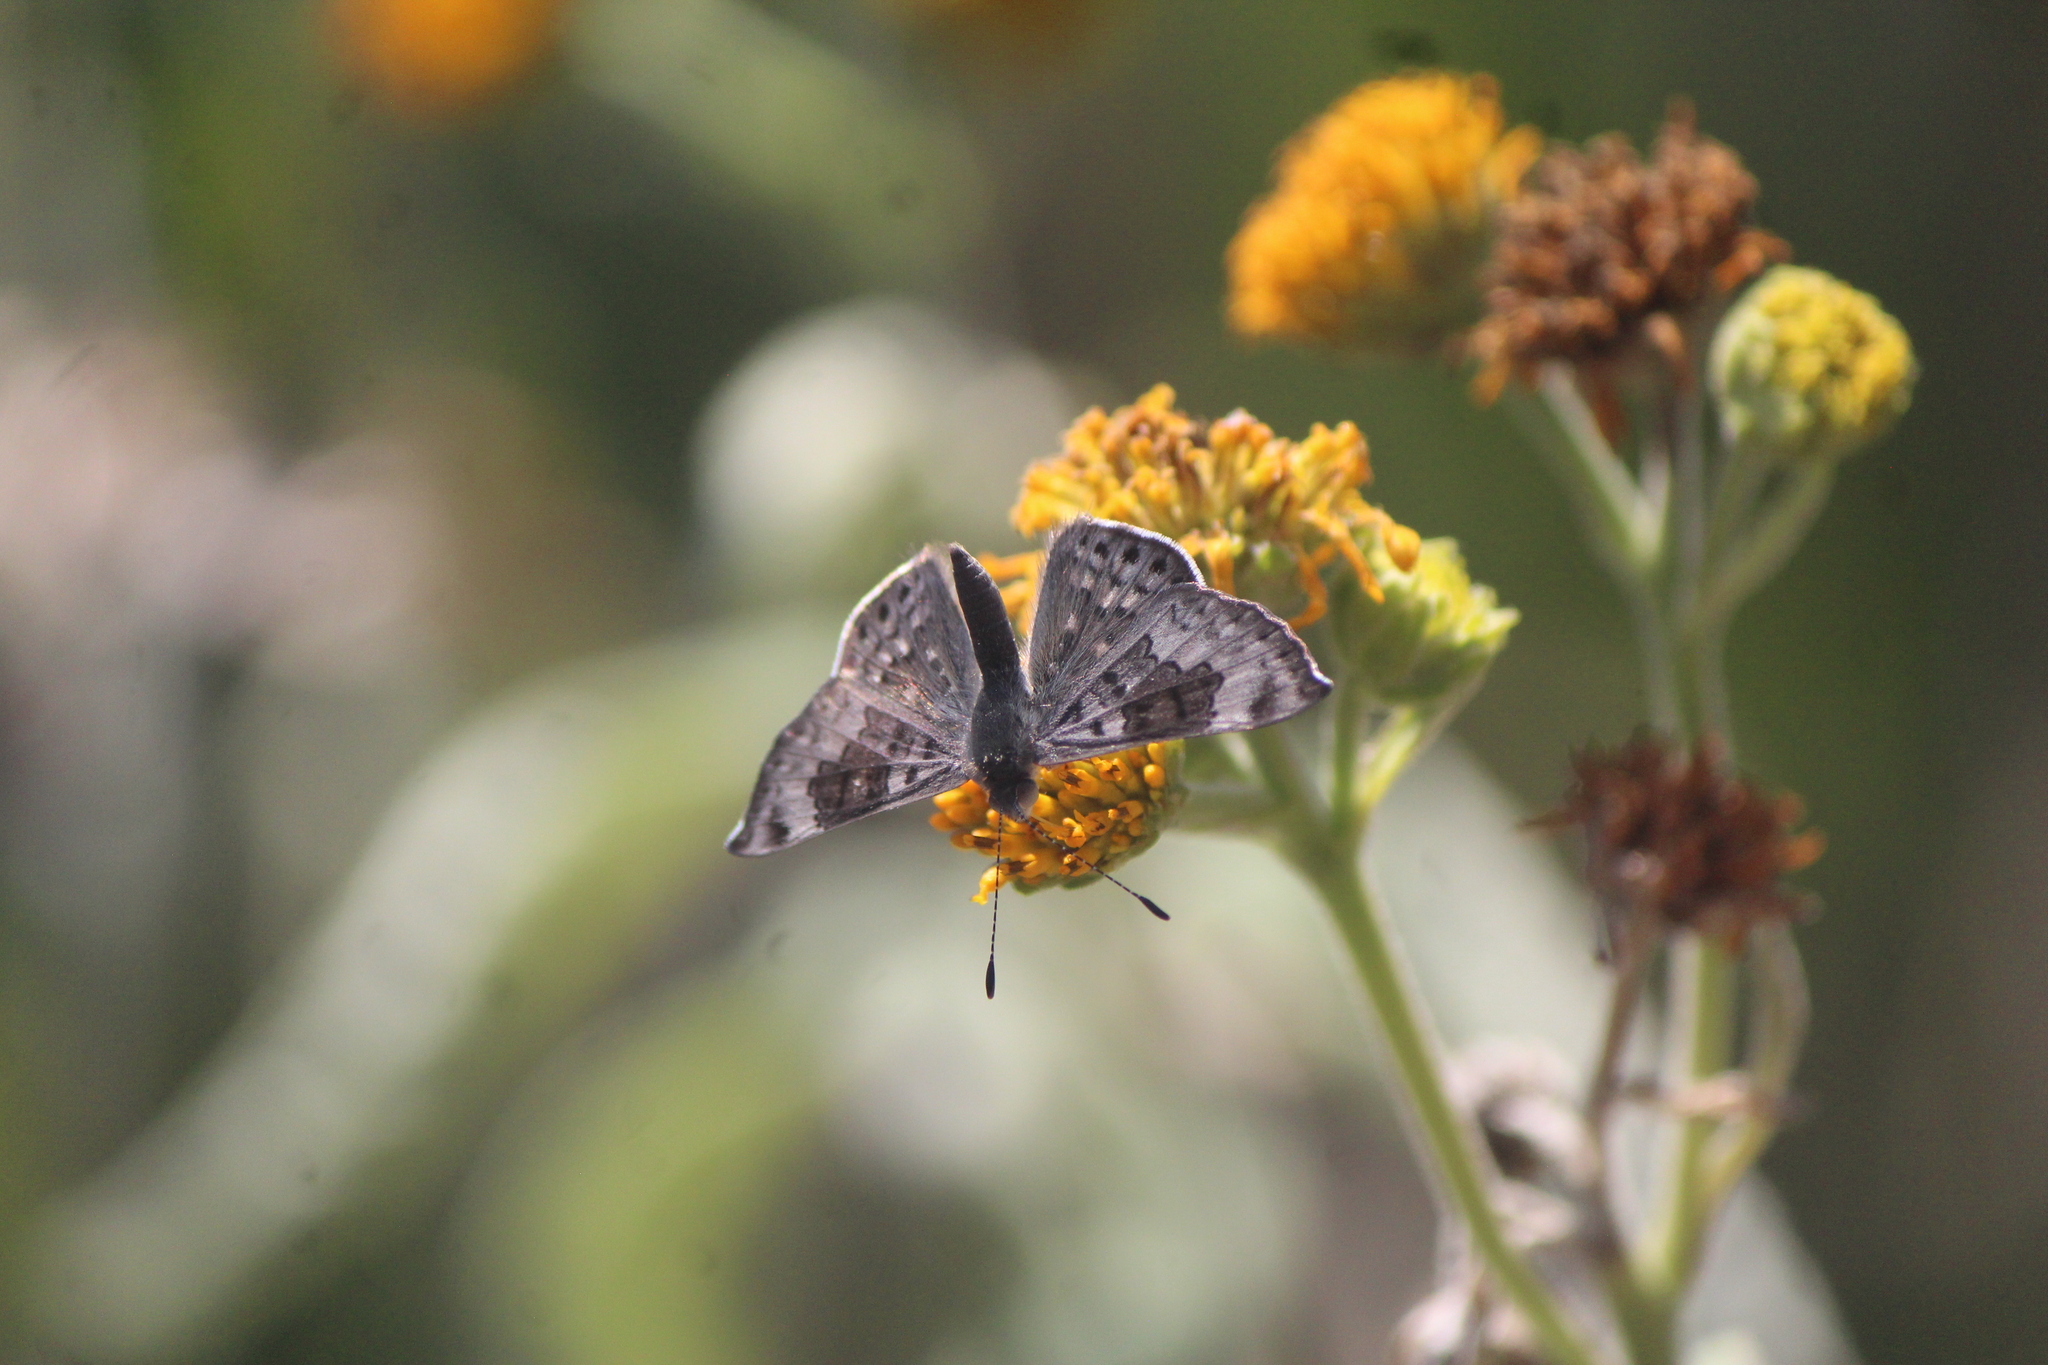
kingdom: Animalia
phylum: Arthropoda
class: Insecta
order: Lepidoptera
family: Riodinidae
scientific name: Riodinidae
